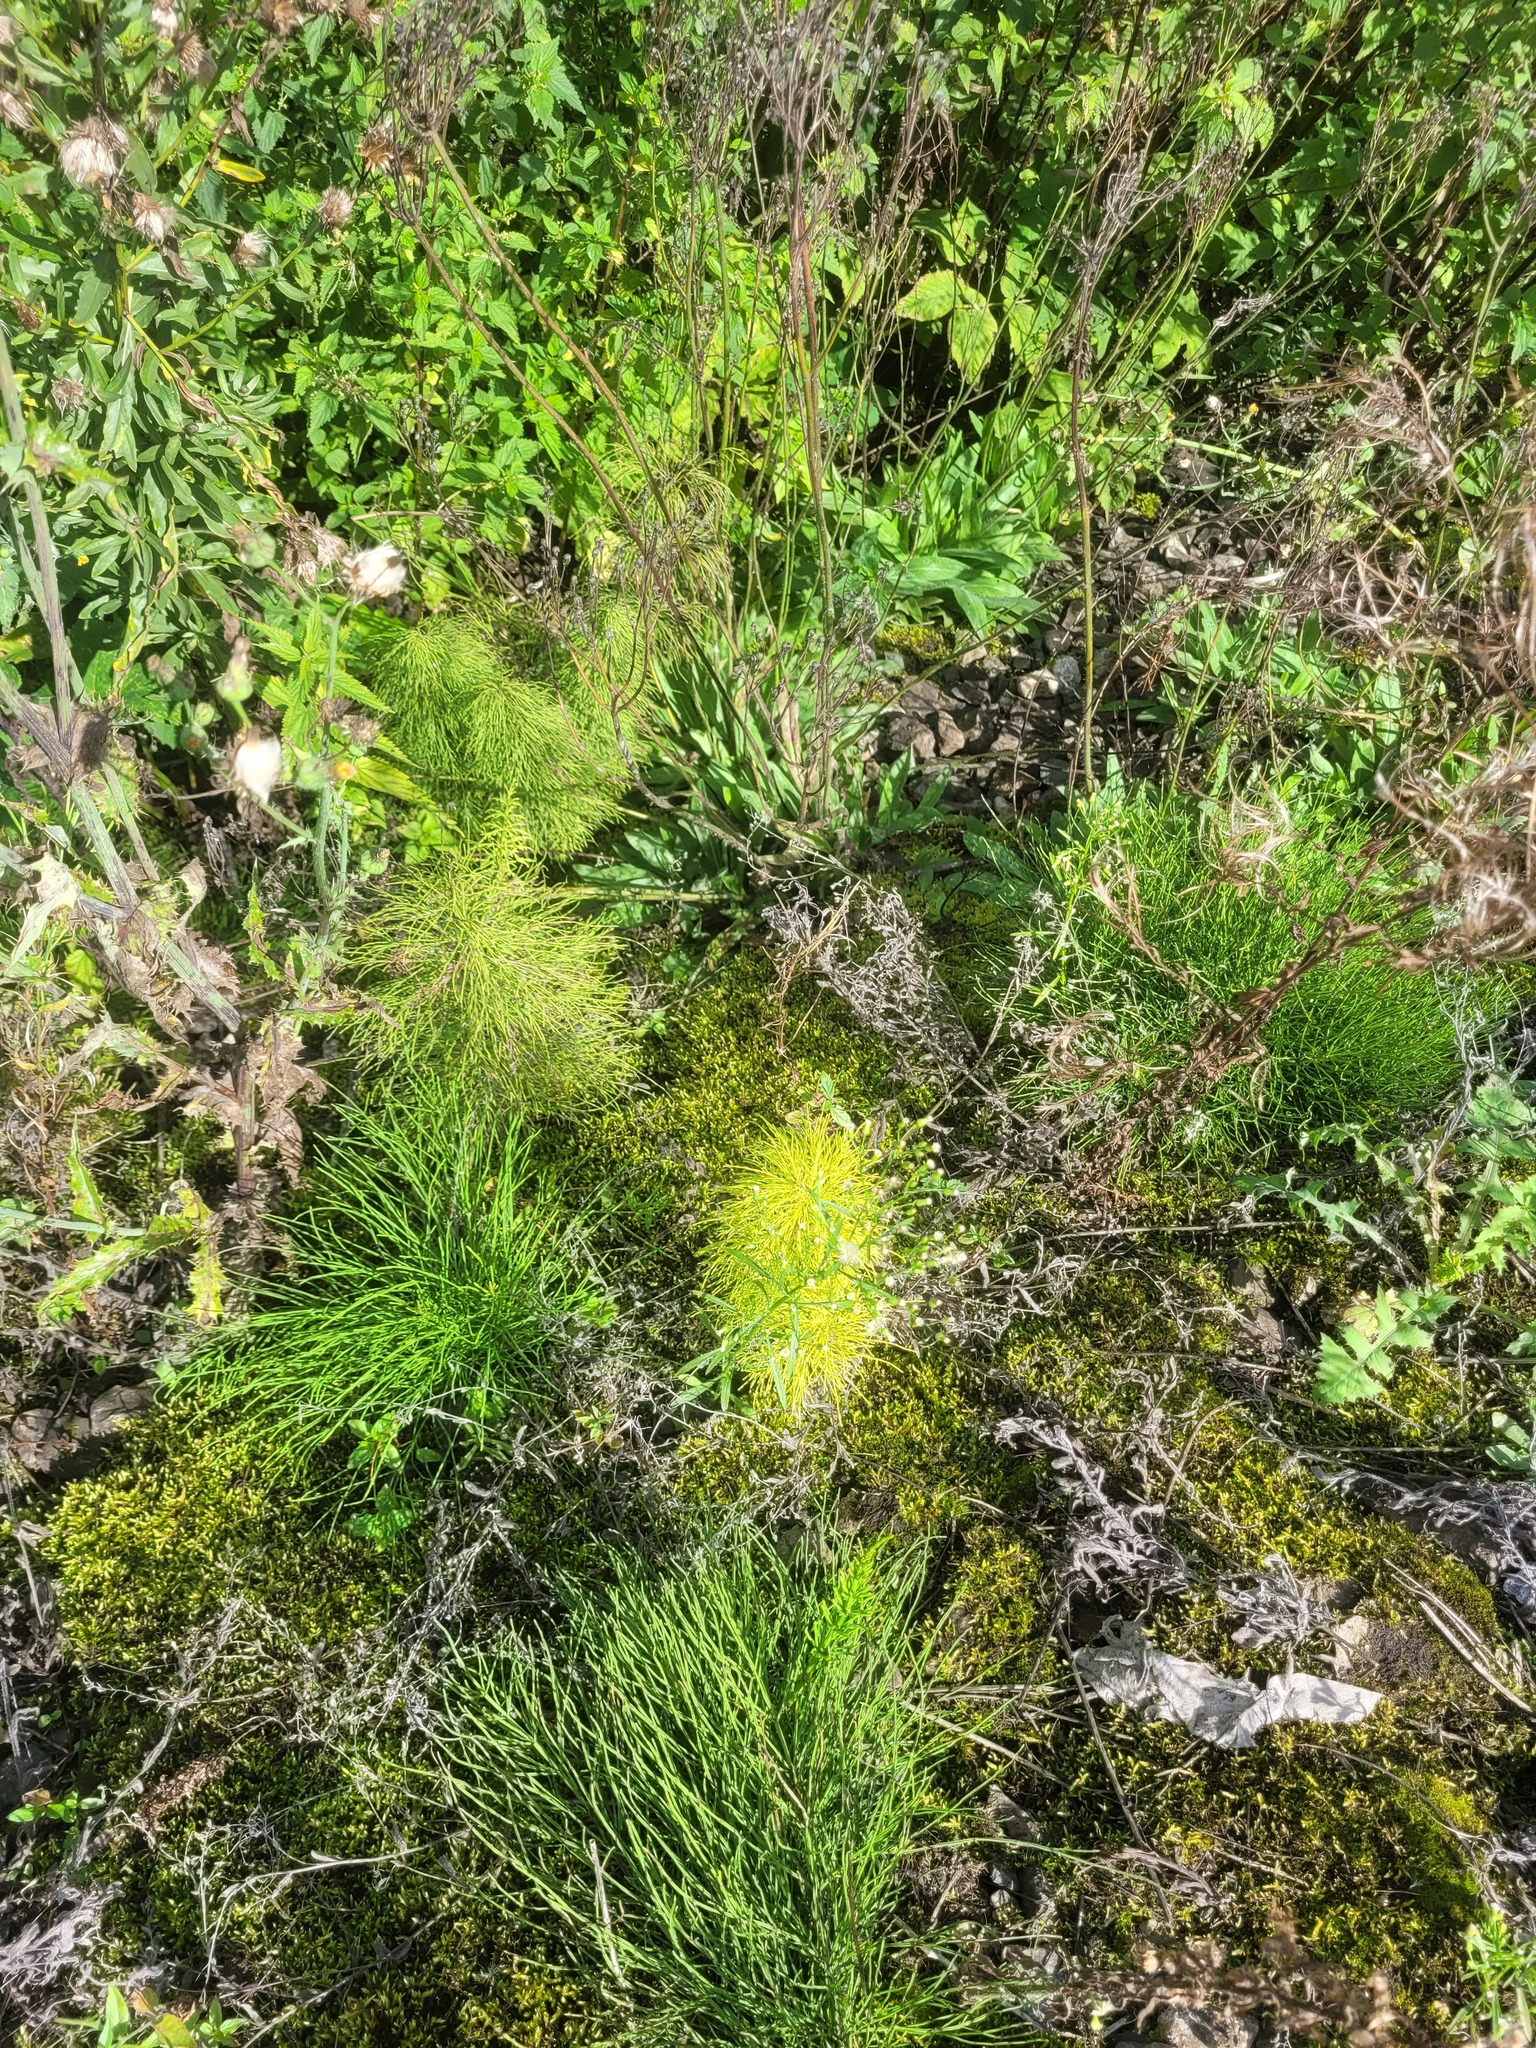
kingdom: Plantae
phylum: Tracheophyta
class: Polypodiopsida
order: Equisetales
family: Equisetaceae
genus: Equisetum
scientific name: Equisetum sylvaticum
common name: Wood horsetail
